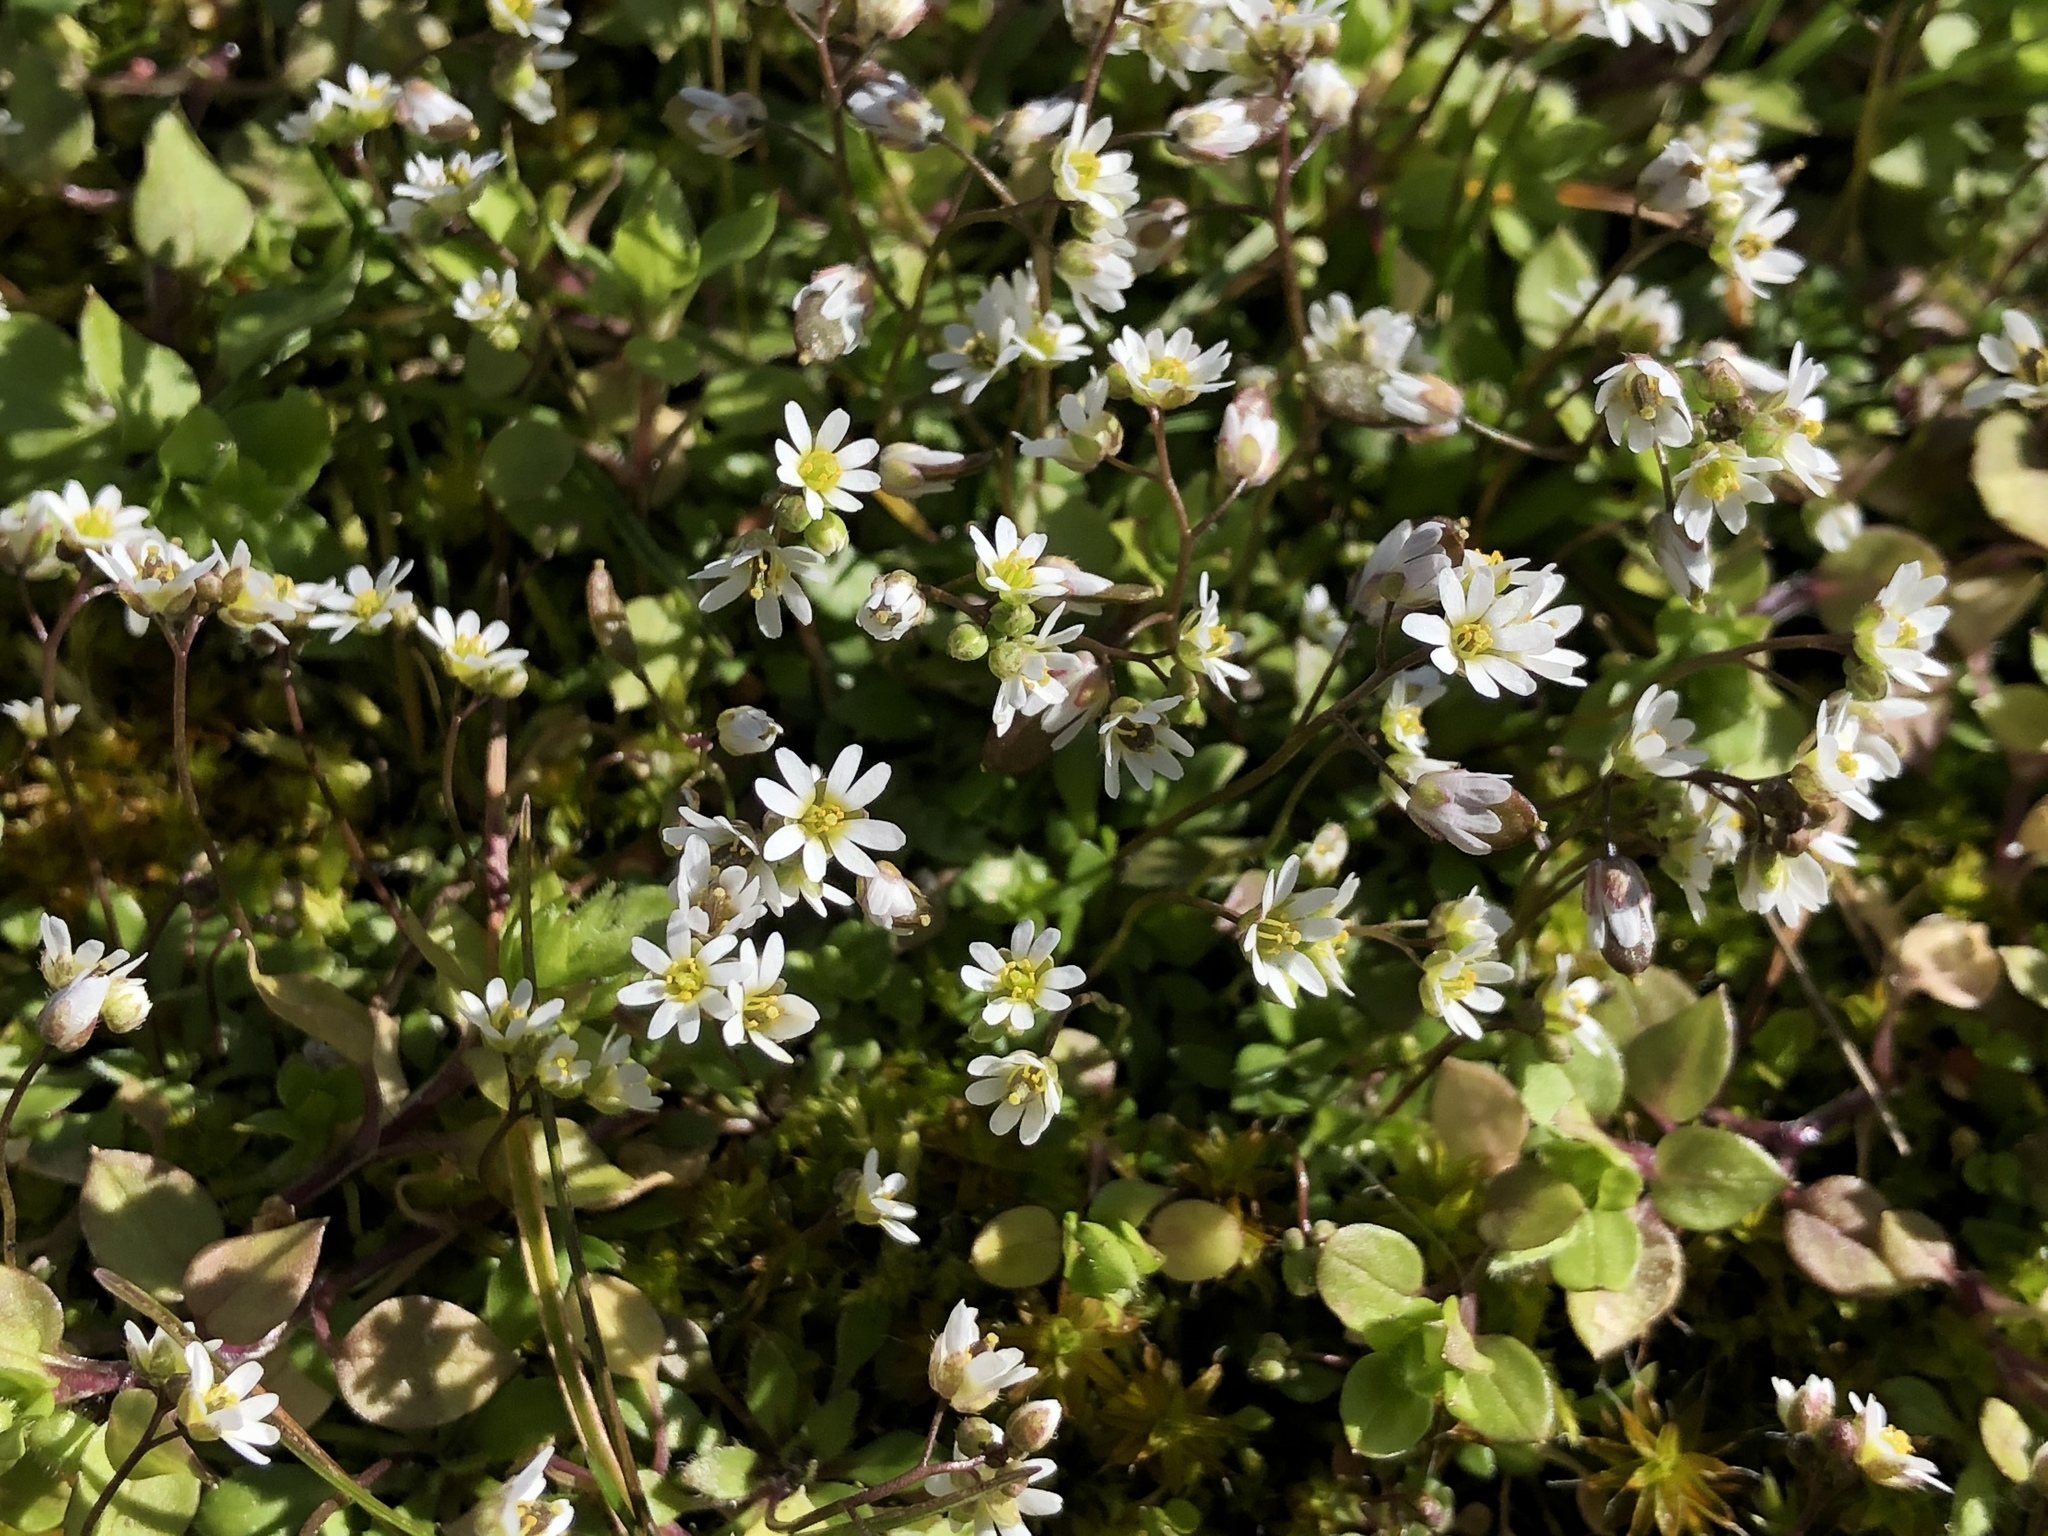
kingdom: Plantae
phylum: Tracheophyta
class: Magnoliopsida
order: Brassicales
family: Brassicaceae
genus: Draba
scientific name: Draba verna
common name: Spring draba
